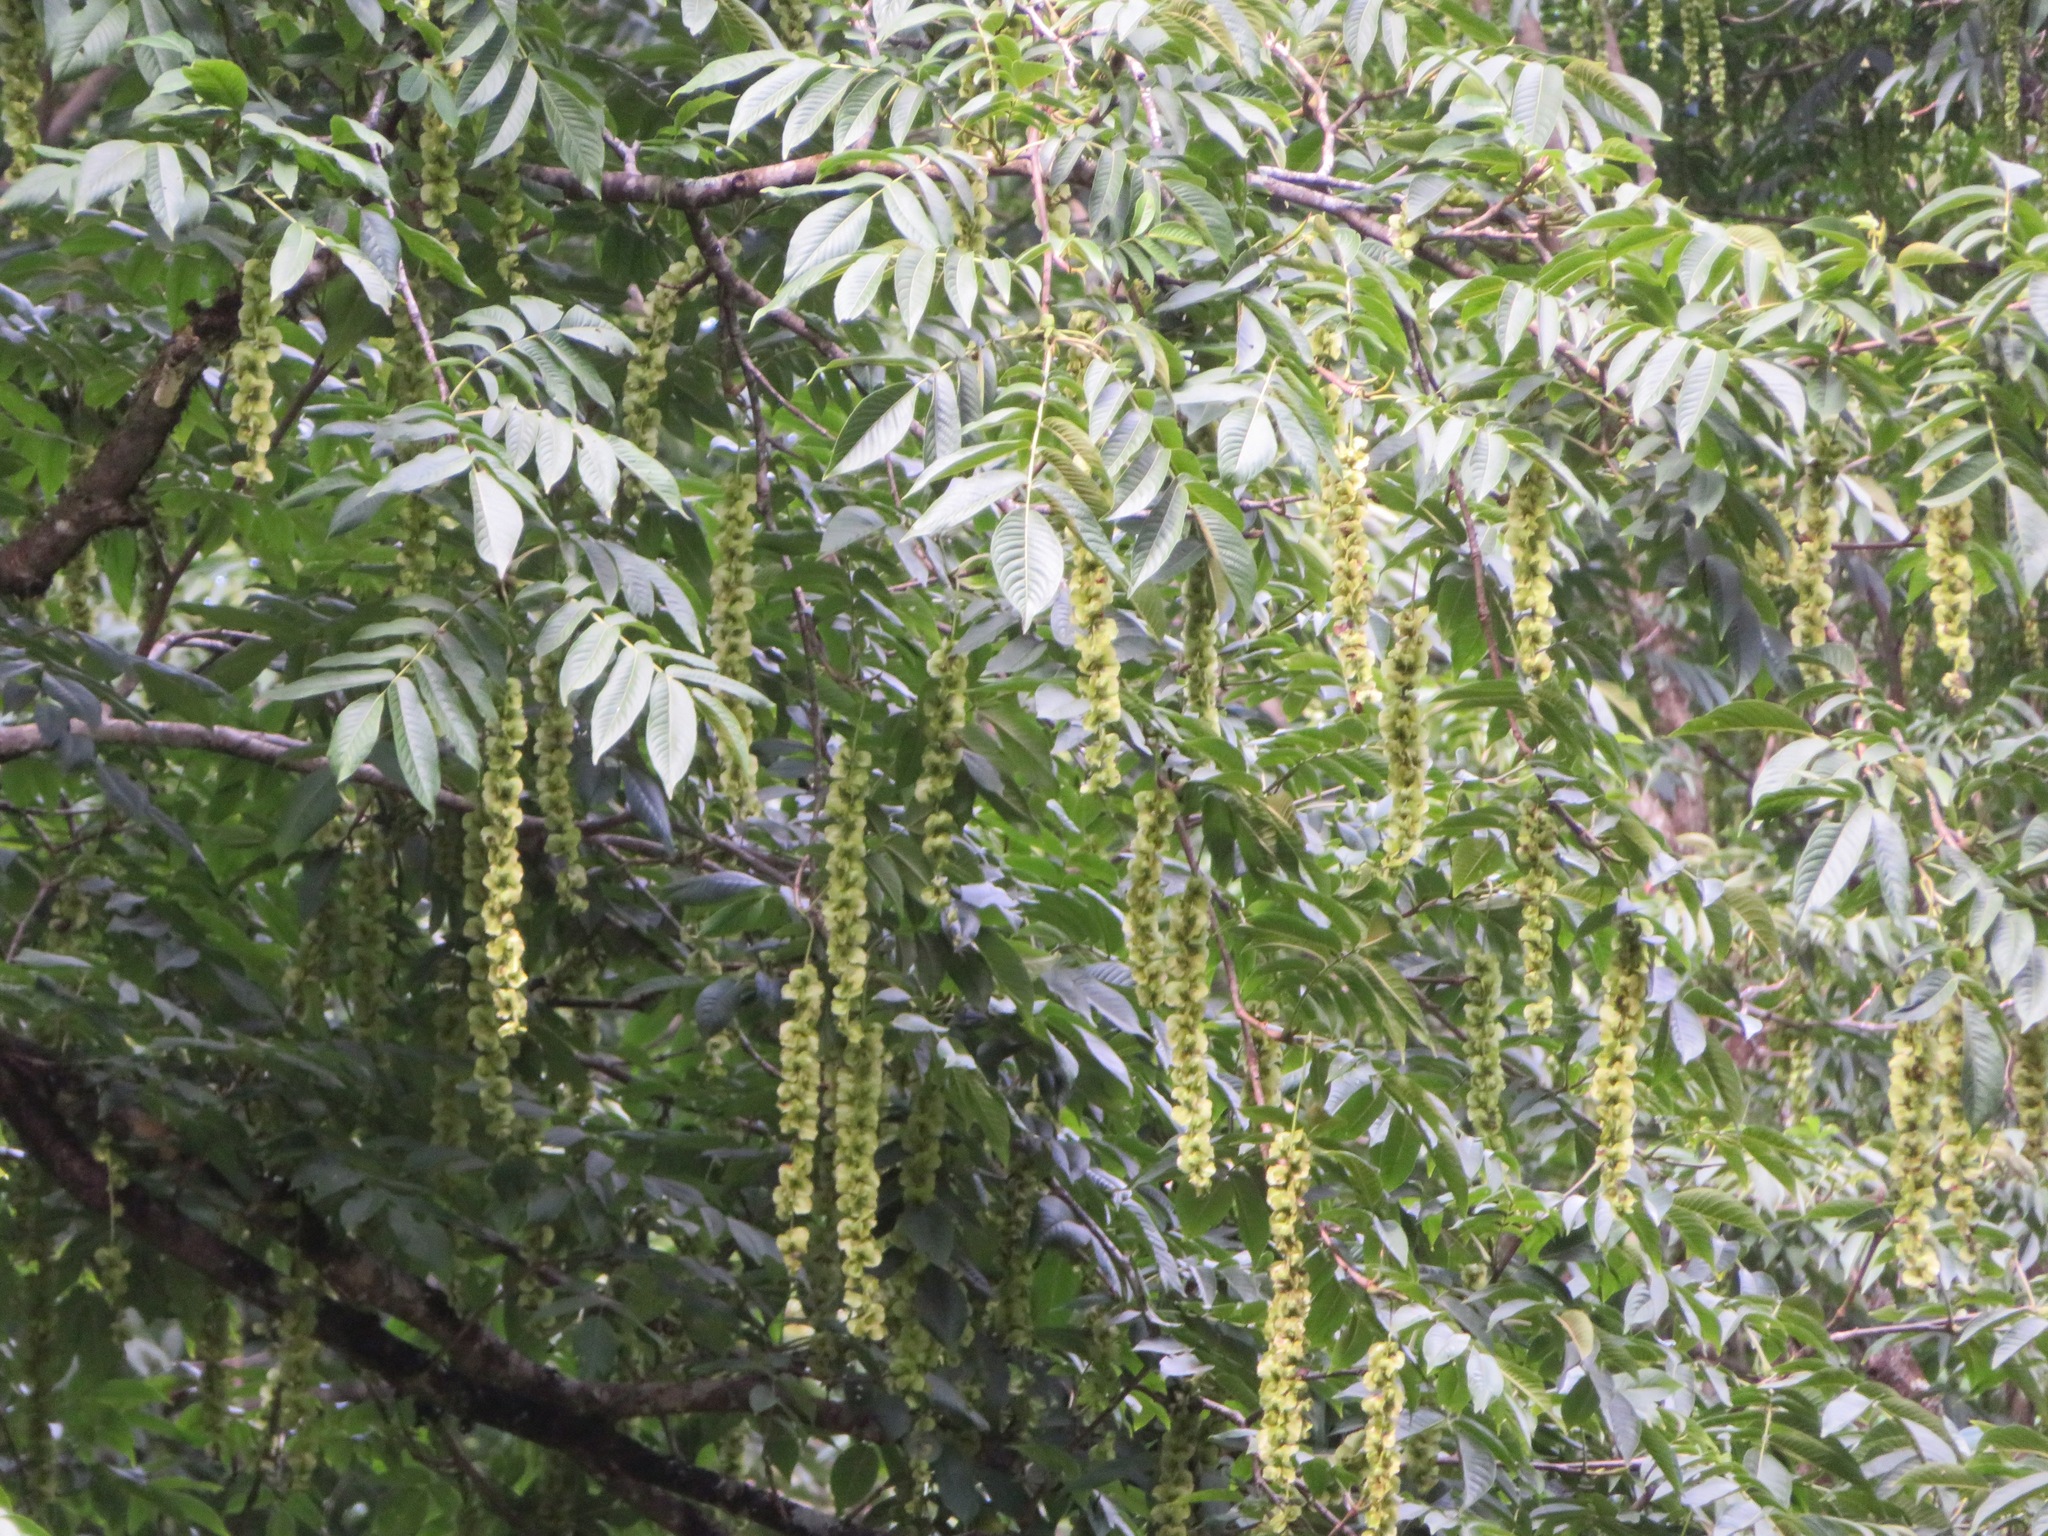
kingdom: Plantae
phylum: Tracheophyta
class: Magnoliopsida
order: Fagales
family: Juglandaceae
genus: Pterocarya
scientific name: Pterocarya rhoifolia
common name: Japanese wingnut
